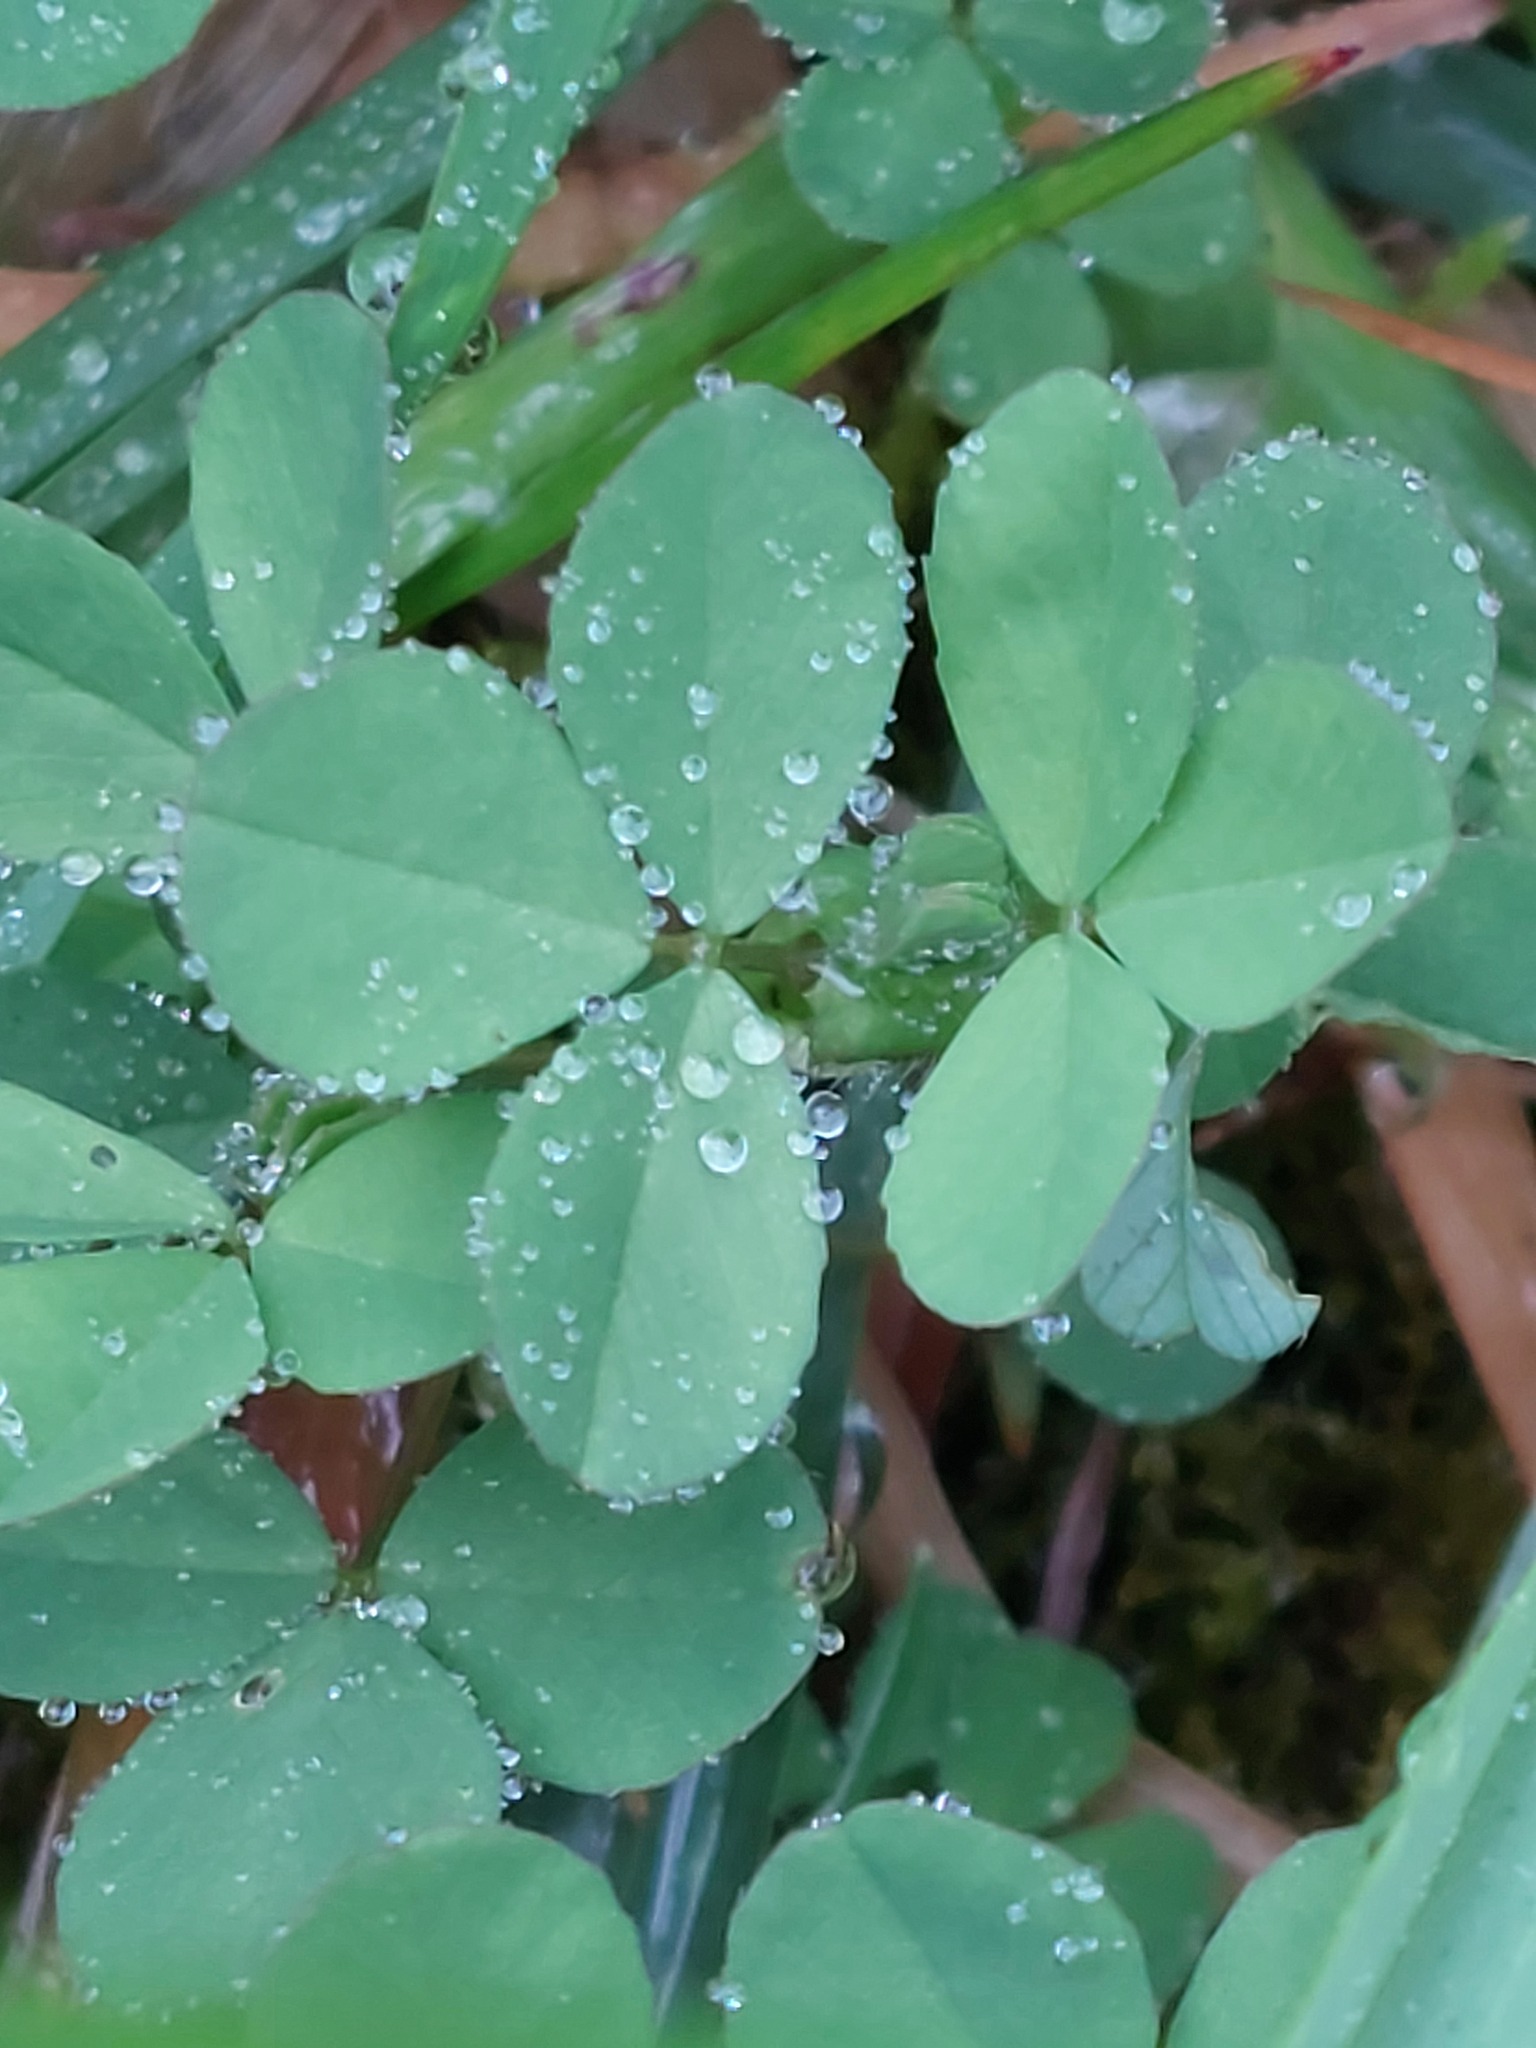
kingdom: Plantae
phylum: Tracheophyta
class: Magnoliopsida
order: Fabales
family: Fabaceae
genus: Trifolium
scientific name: Trifolium repens
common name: White clover
